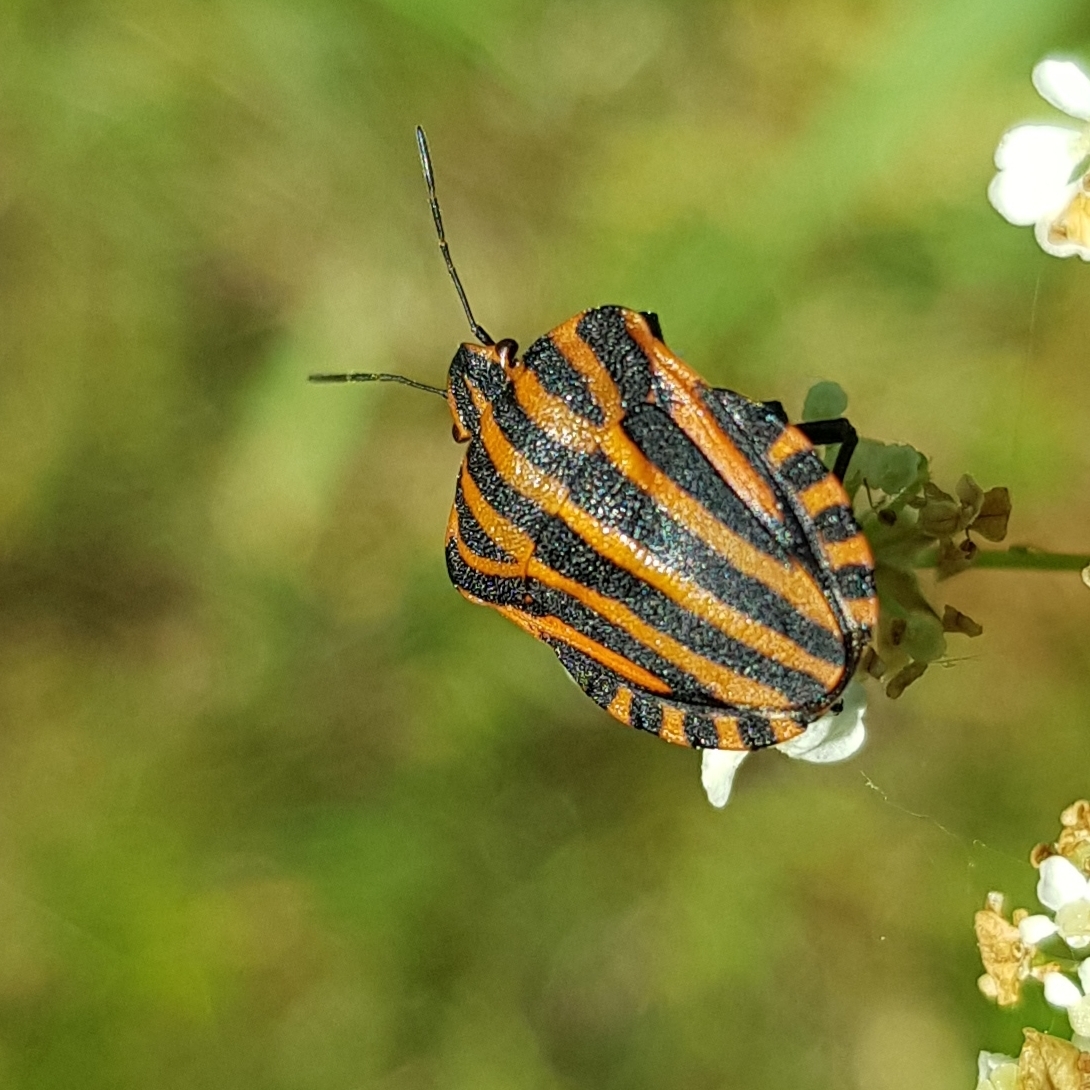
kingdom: Animalia
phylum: Arthropoda
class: Insecta
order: Hemiptera
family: Pentatomidae
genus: Graphosoma
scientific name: Graphosoma italicum
